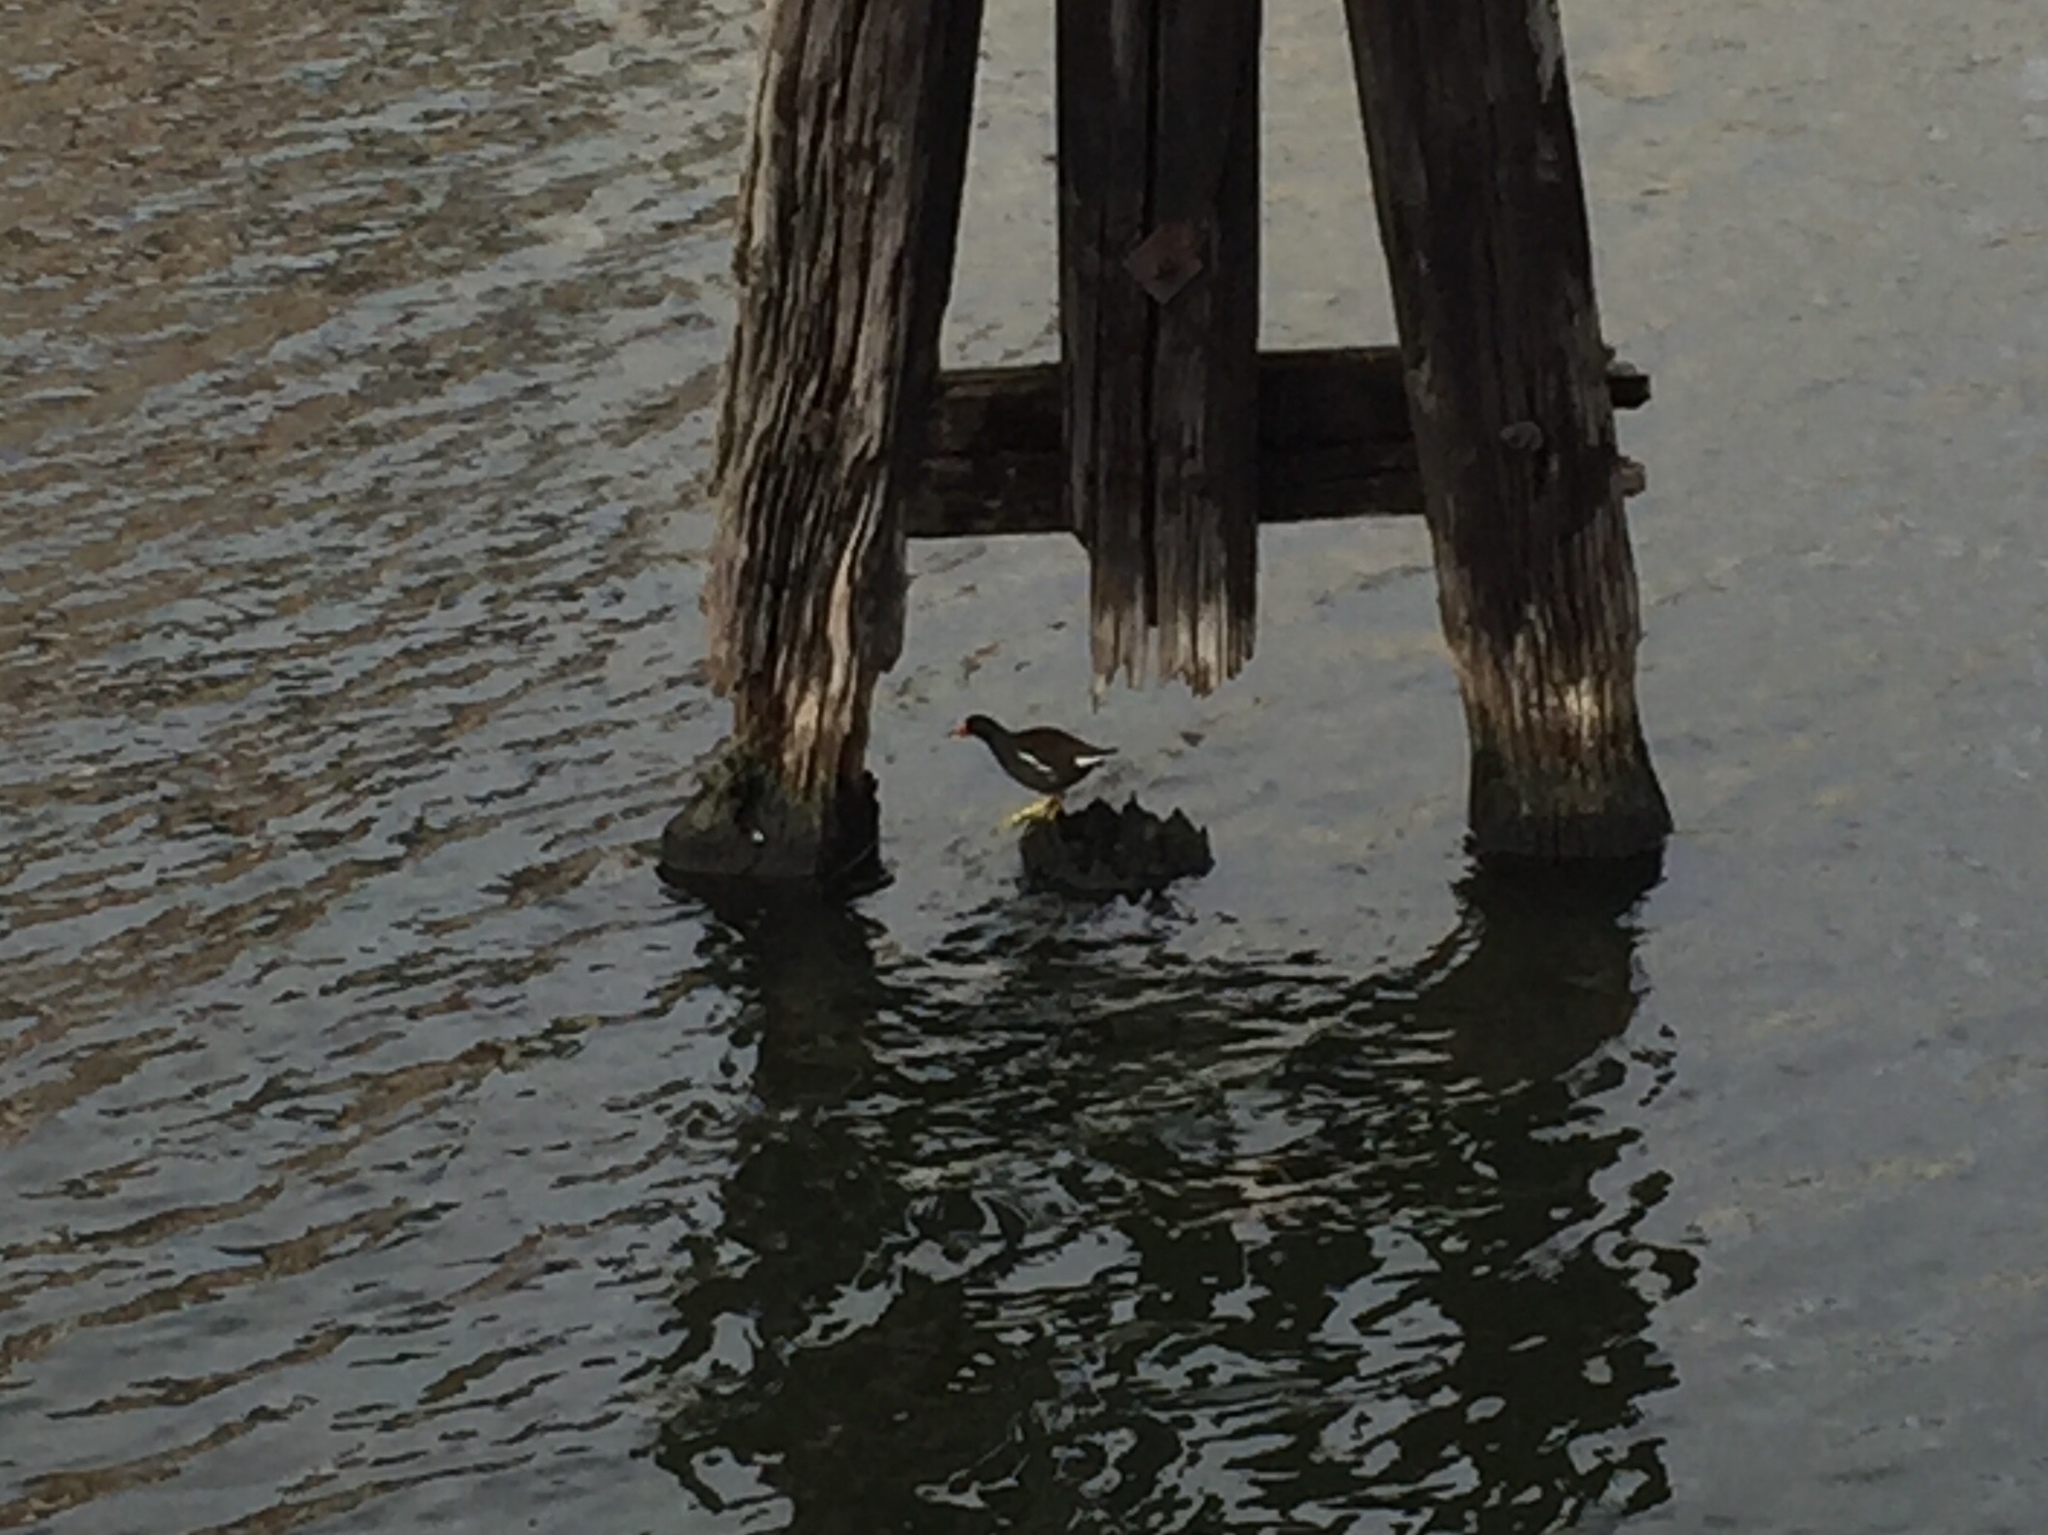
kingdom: Animalia
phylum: Chordata
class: Aves
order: Gruiformes
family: Rallidae
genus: Gallinula
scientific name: Gallinula chloropus
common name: Common moorhen
